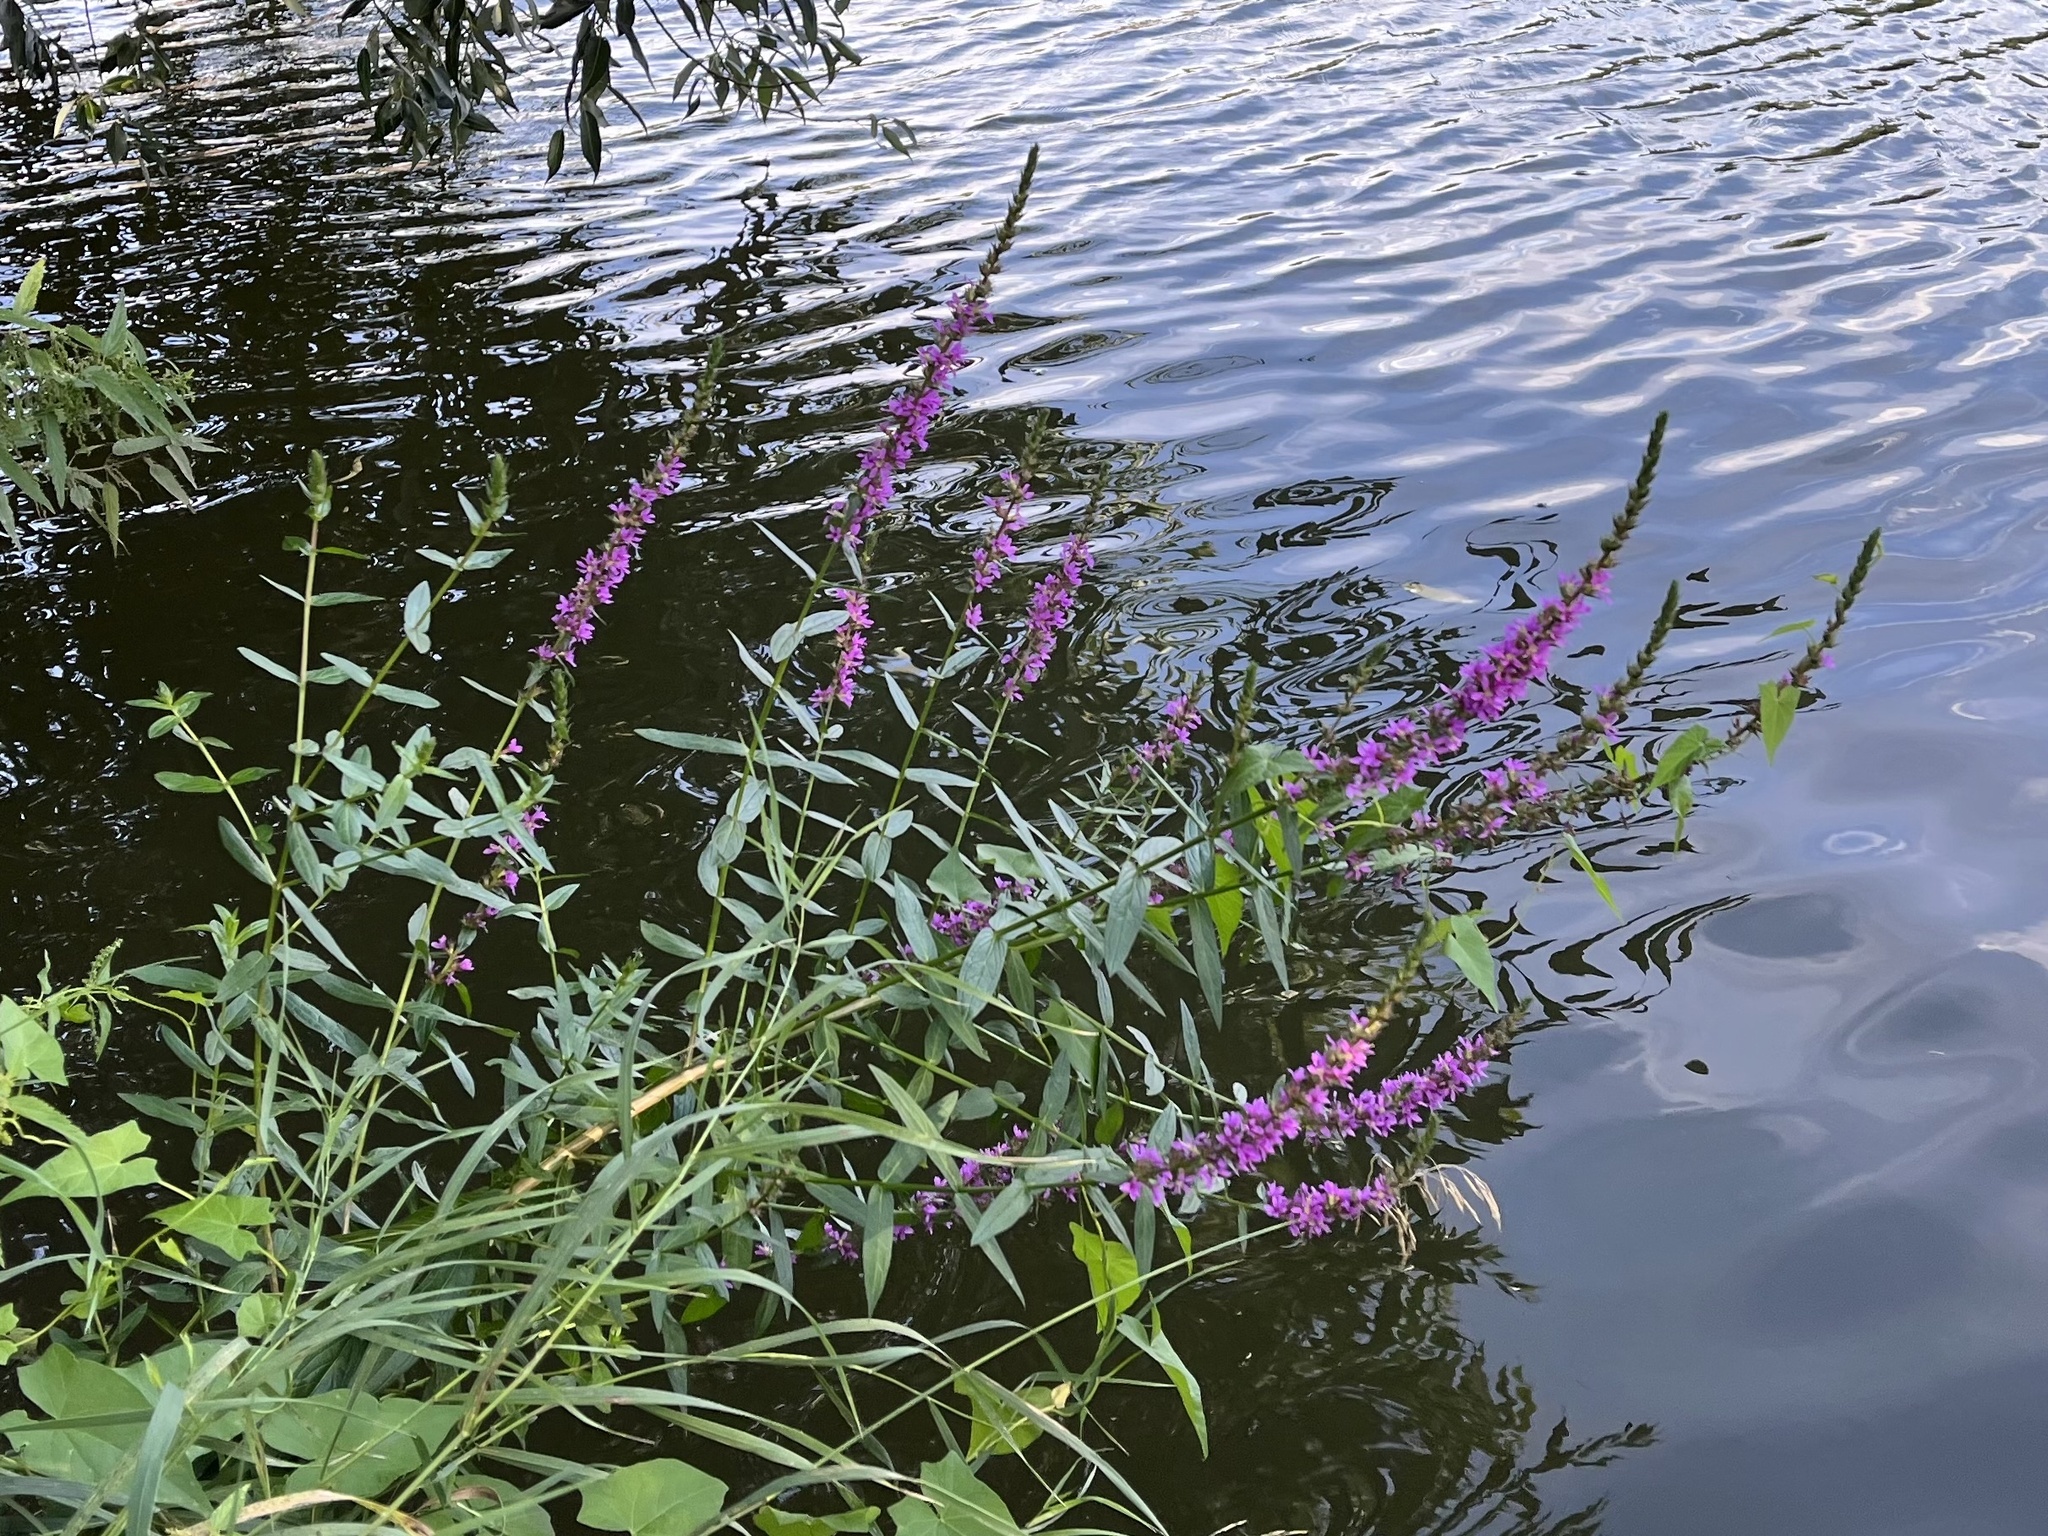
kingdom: Plantae
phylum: Tracheophyta
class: Magnoliopsida
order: Myrtales
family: Lythraceae
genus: Lythrum
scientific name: Lythrum salicaria
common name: Purple loosestrife
